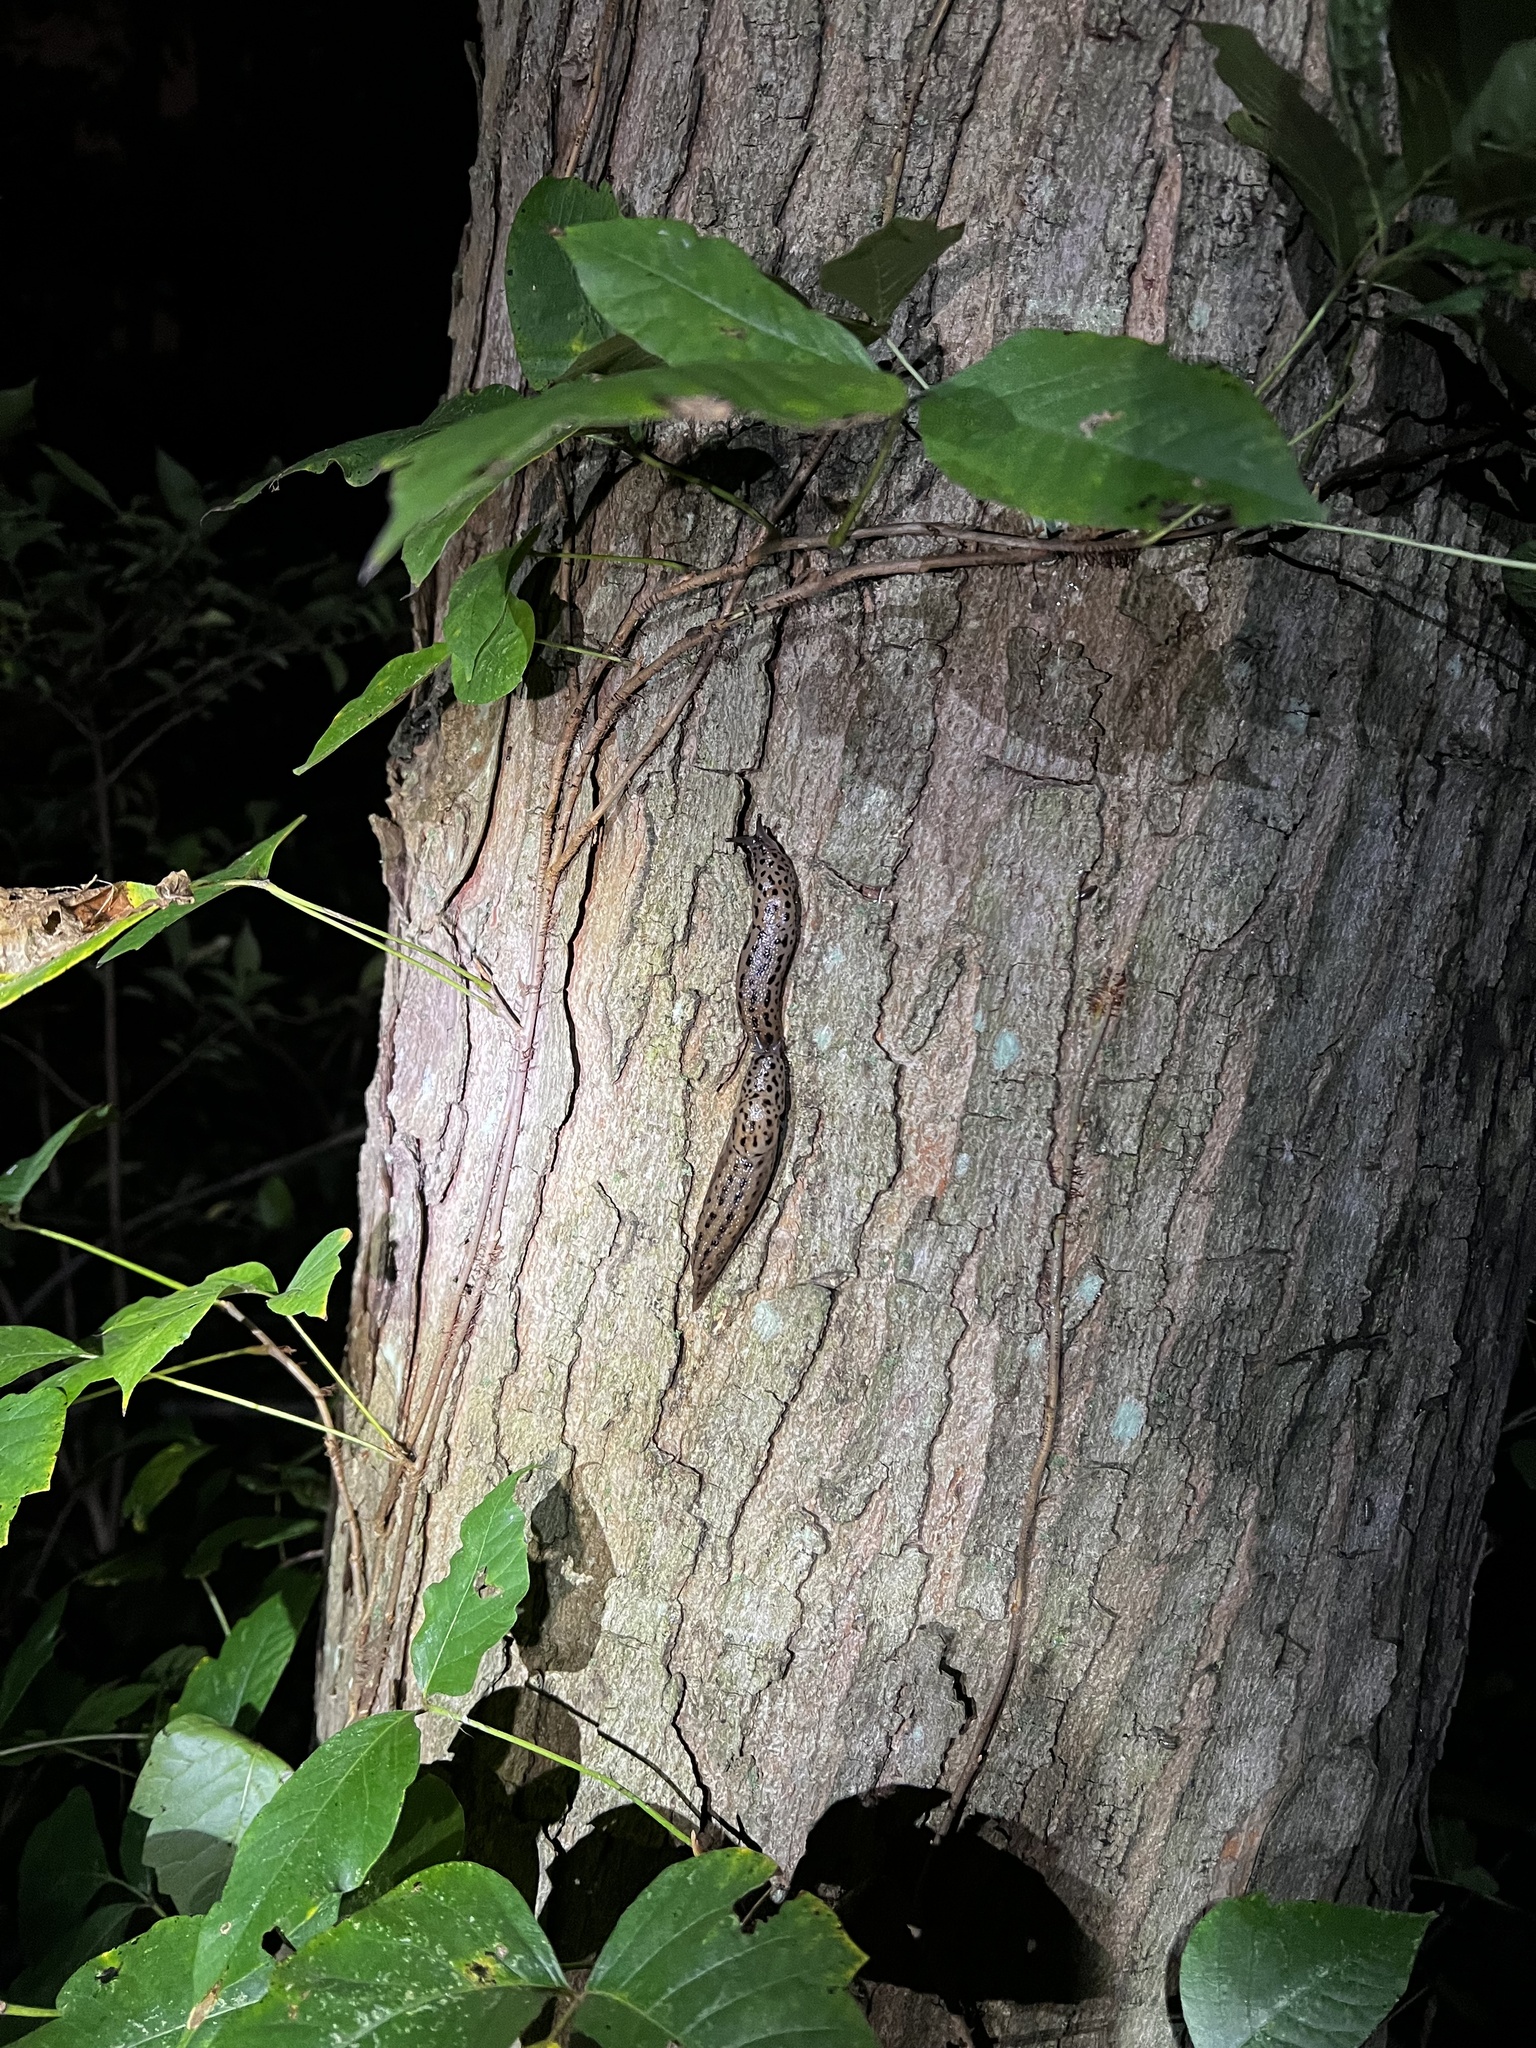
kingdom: Animalia
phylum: Mollusca
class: Gastropoda
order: Stylommatophora
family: Limacidae
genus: Limax
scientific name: Limax maximus
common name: Great grey slug
